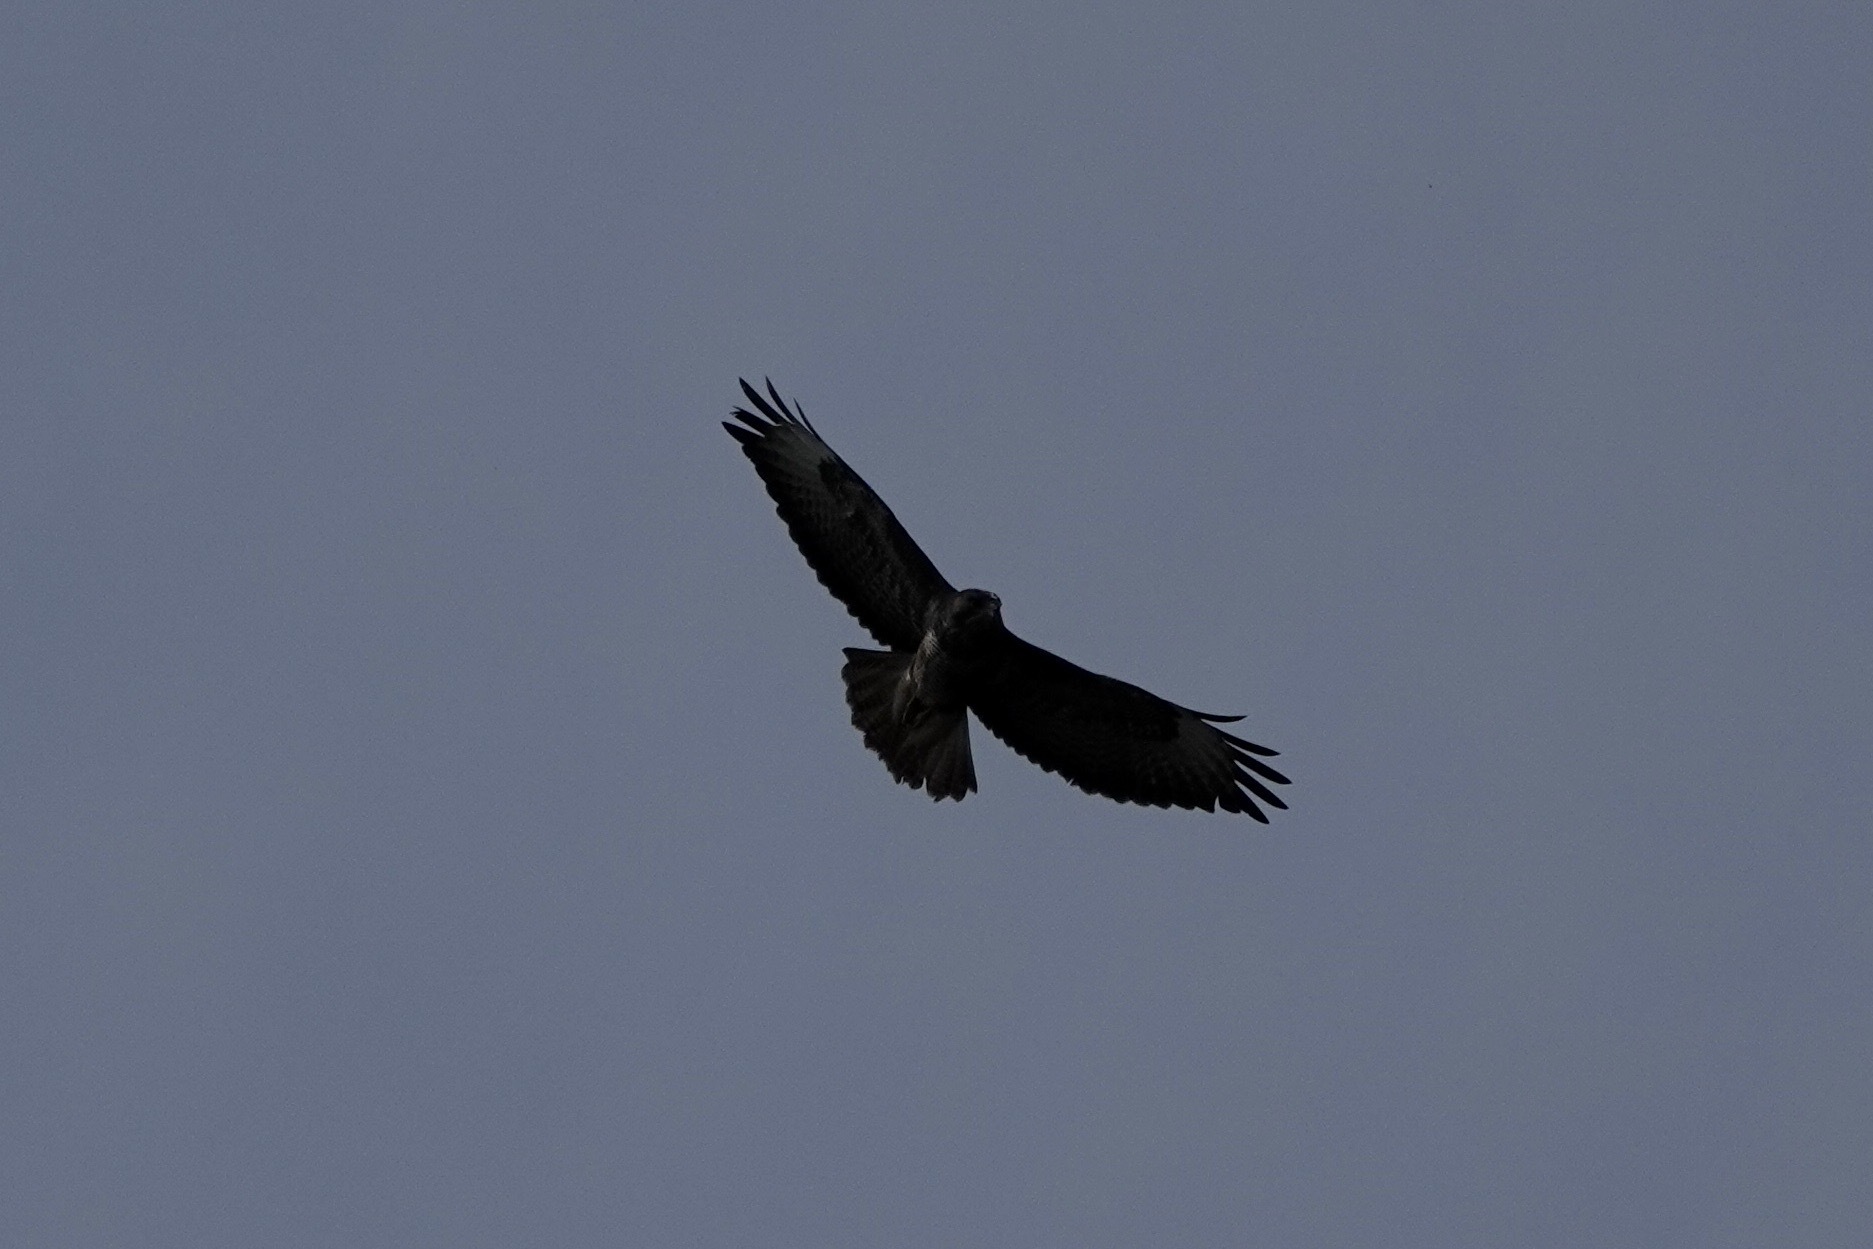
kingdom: Animalia
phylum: Chordata
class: Aves
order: Accipitriformes
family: Accipitridae
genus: Buteo
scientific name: Buteo buteo
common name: Common buzzard
